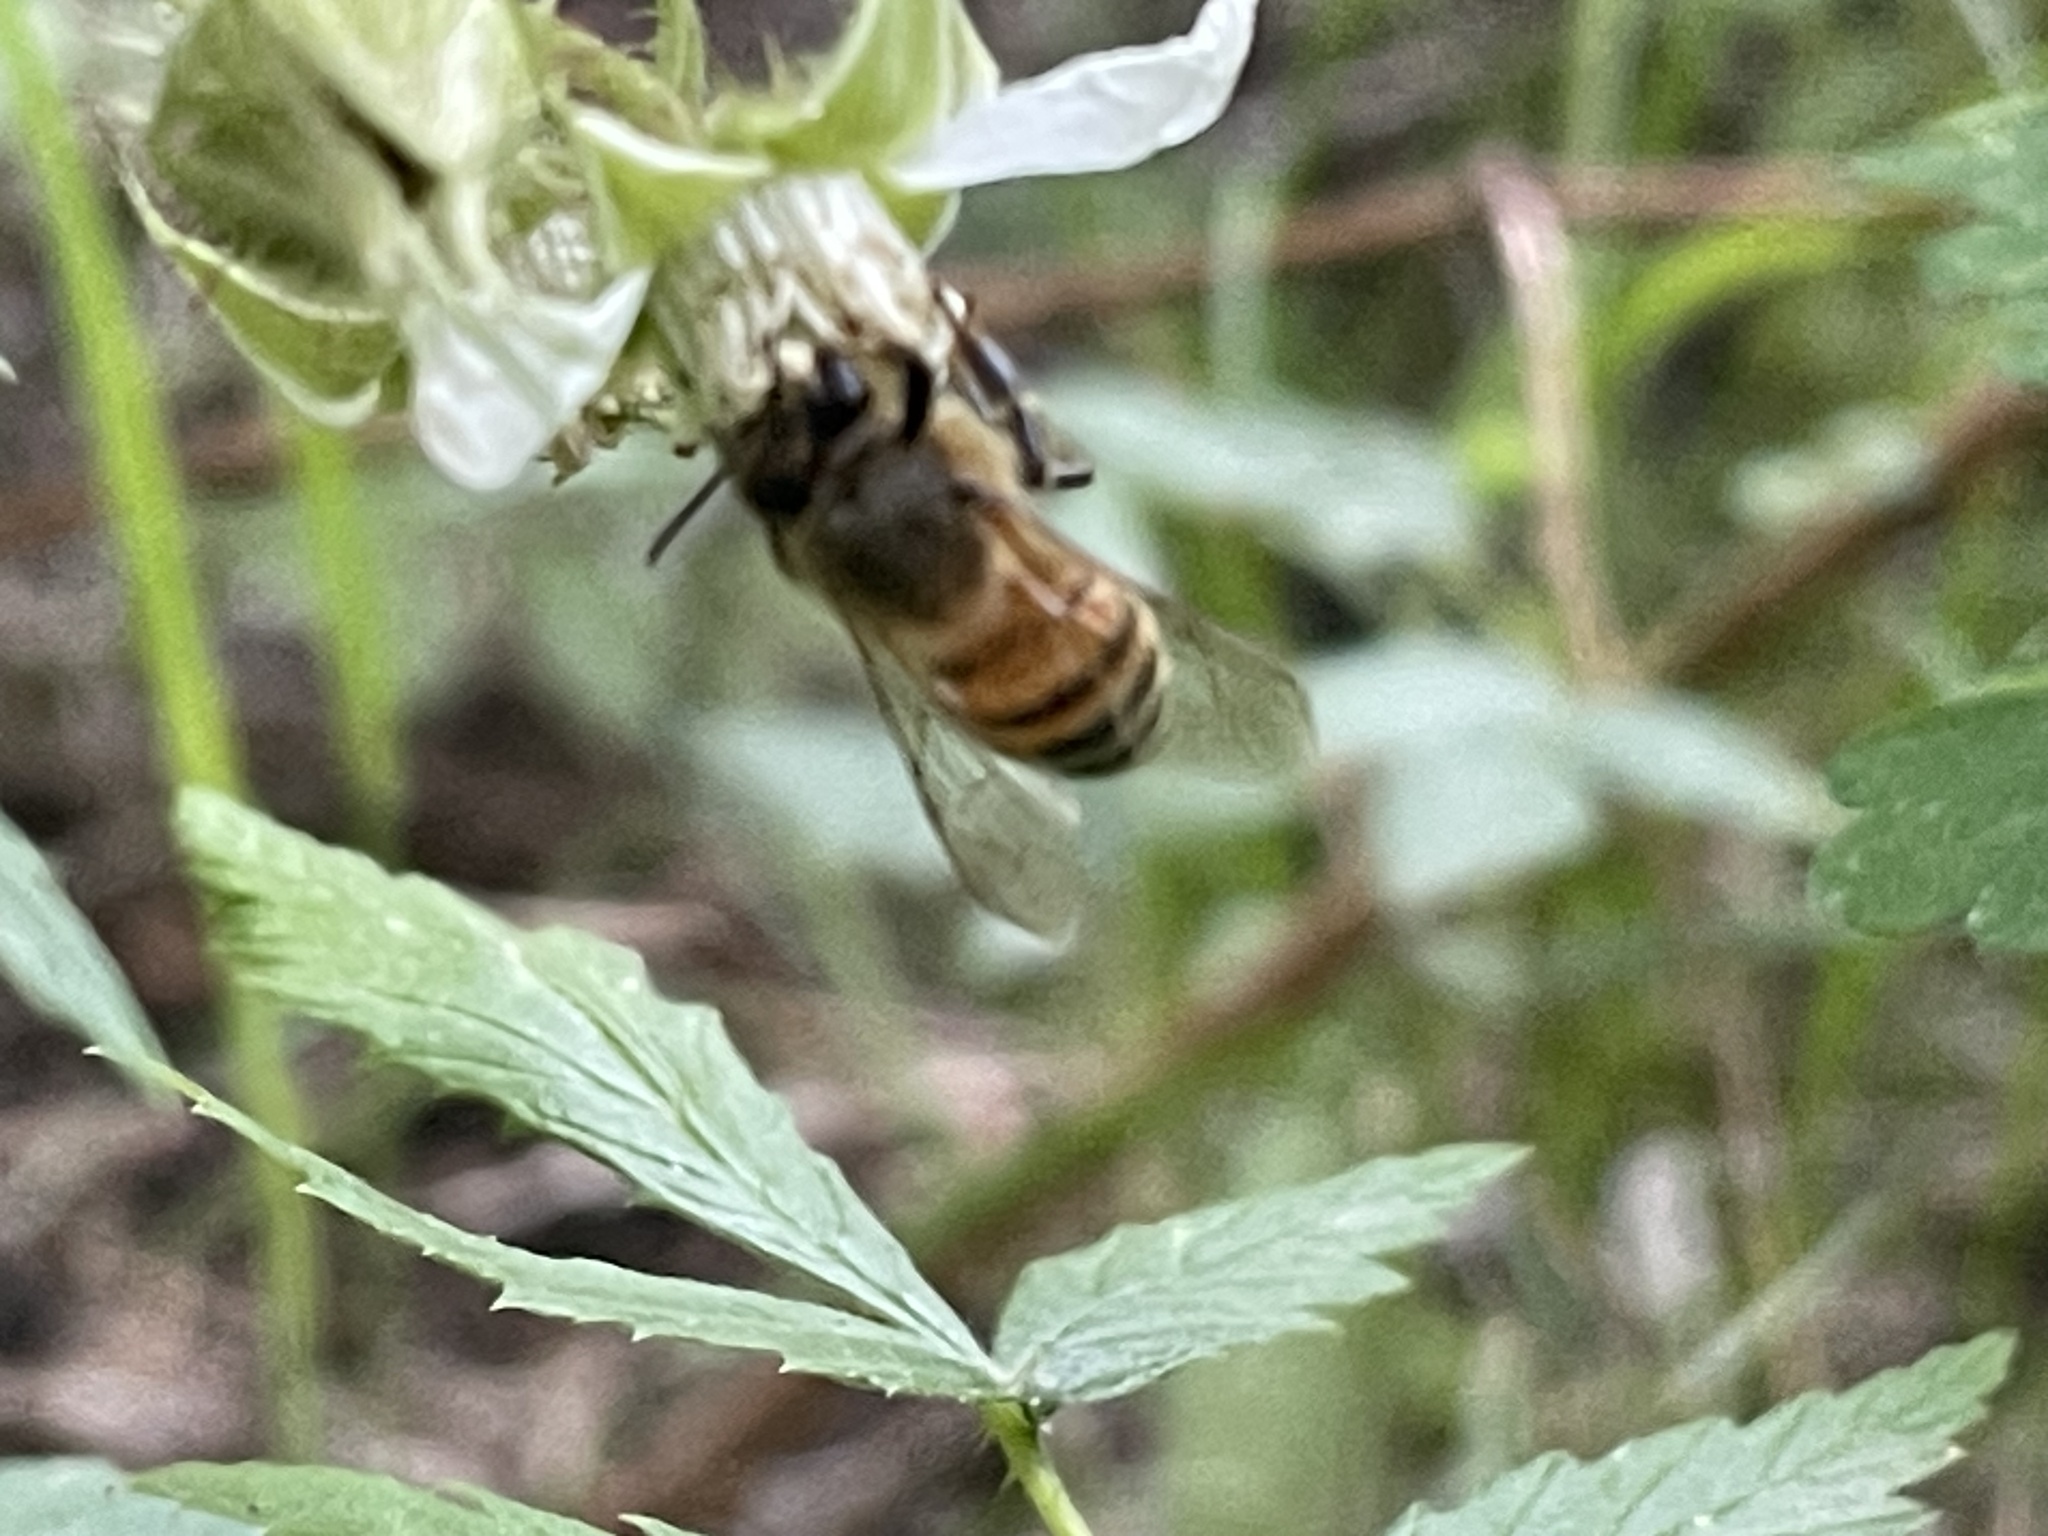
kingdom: Animalia
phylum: Arthropoda
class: Insecta
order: Hymenoptera
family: Apidae
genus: Apis
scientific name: Apis mellifera
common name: Honey bee
